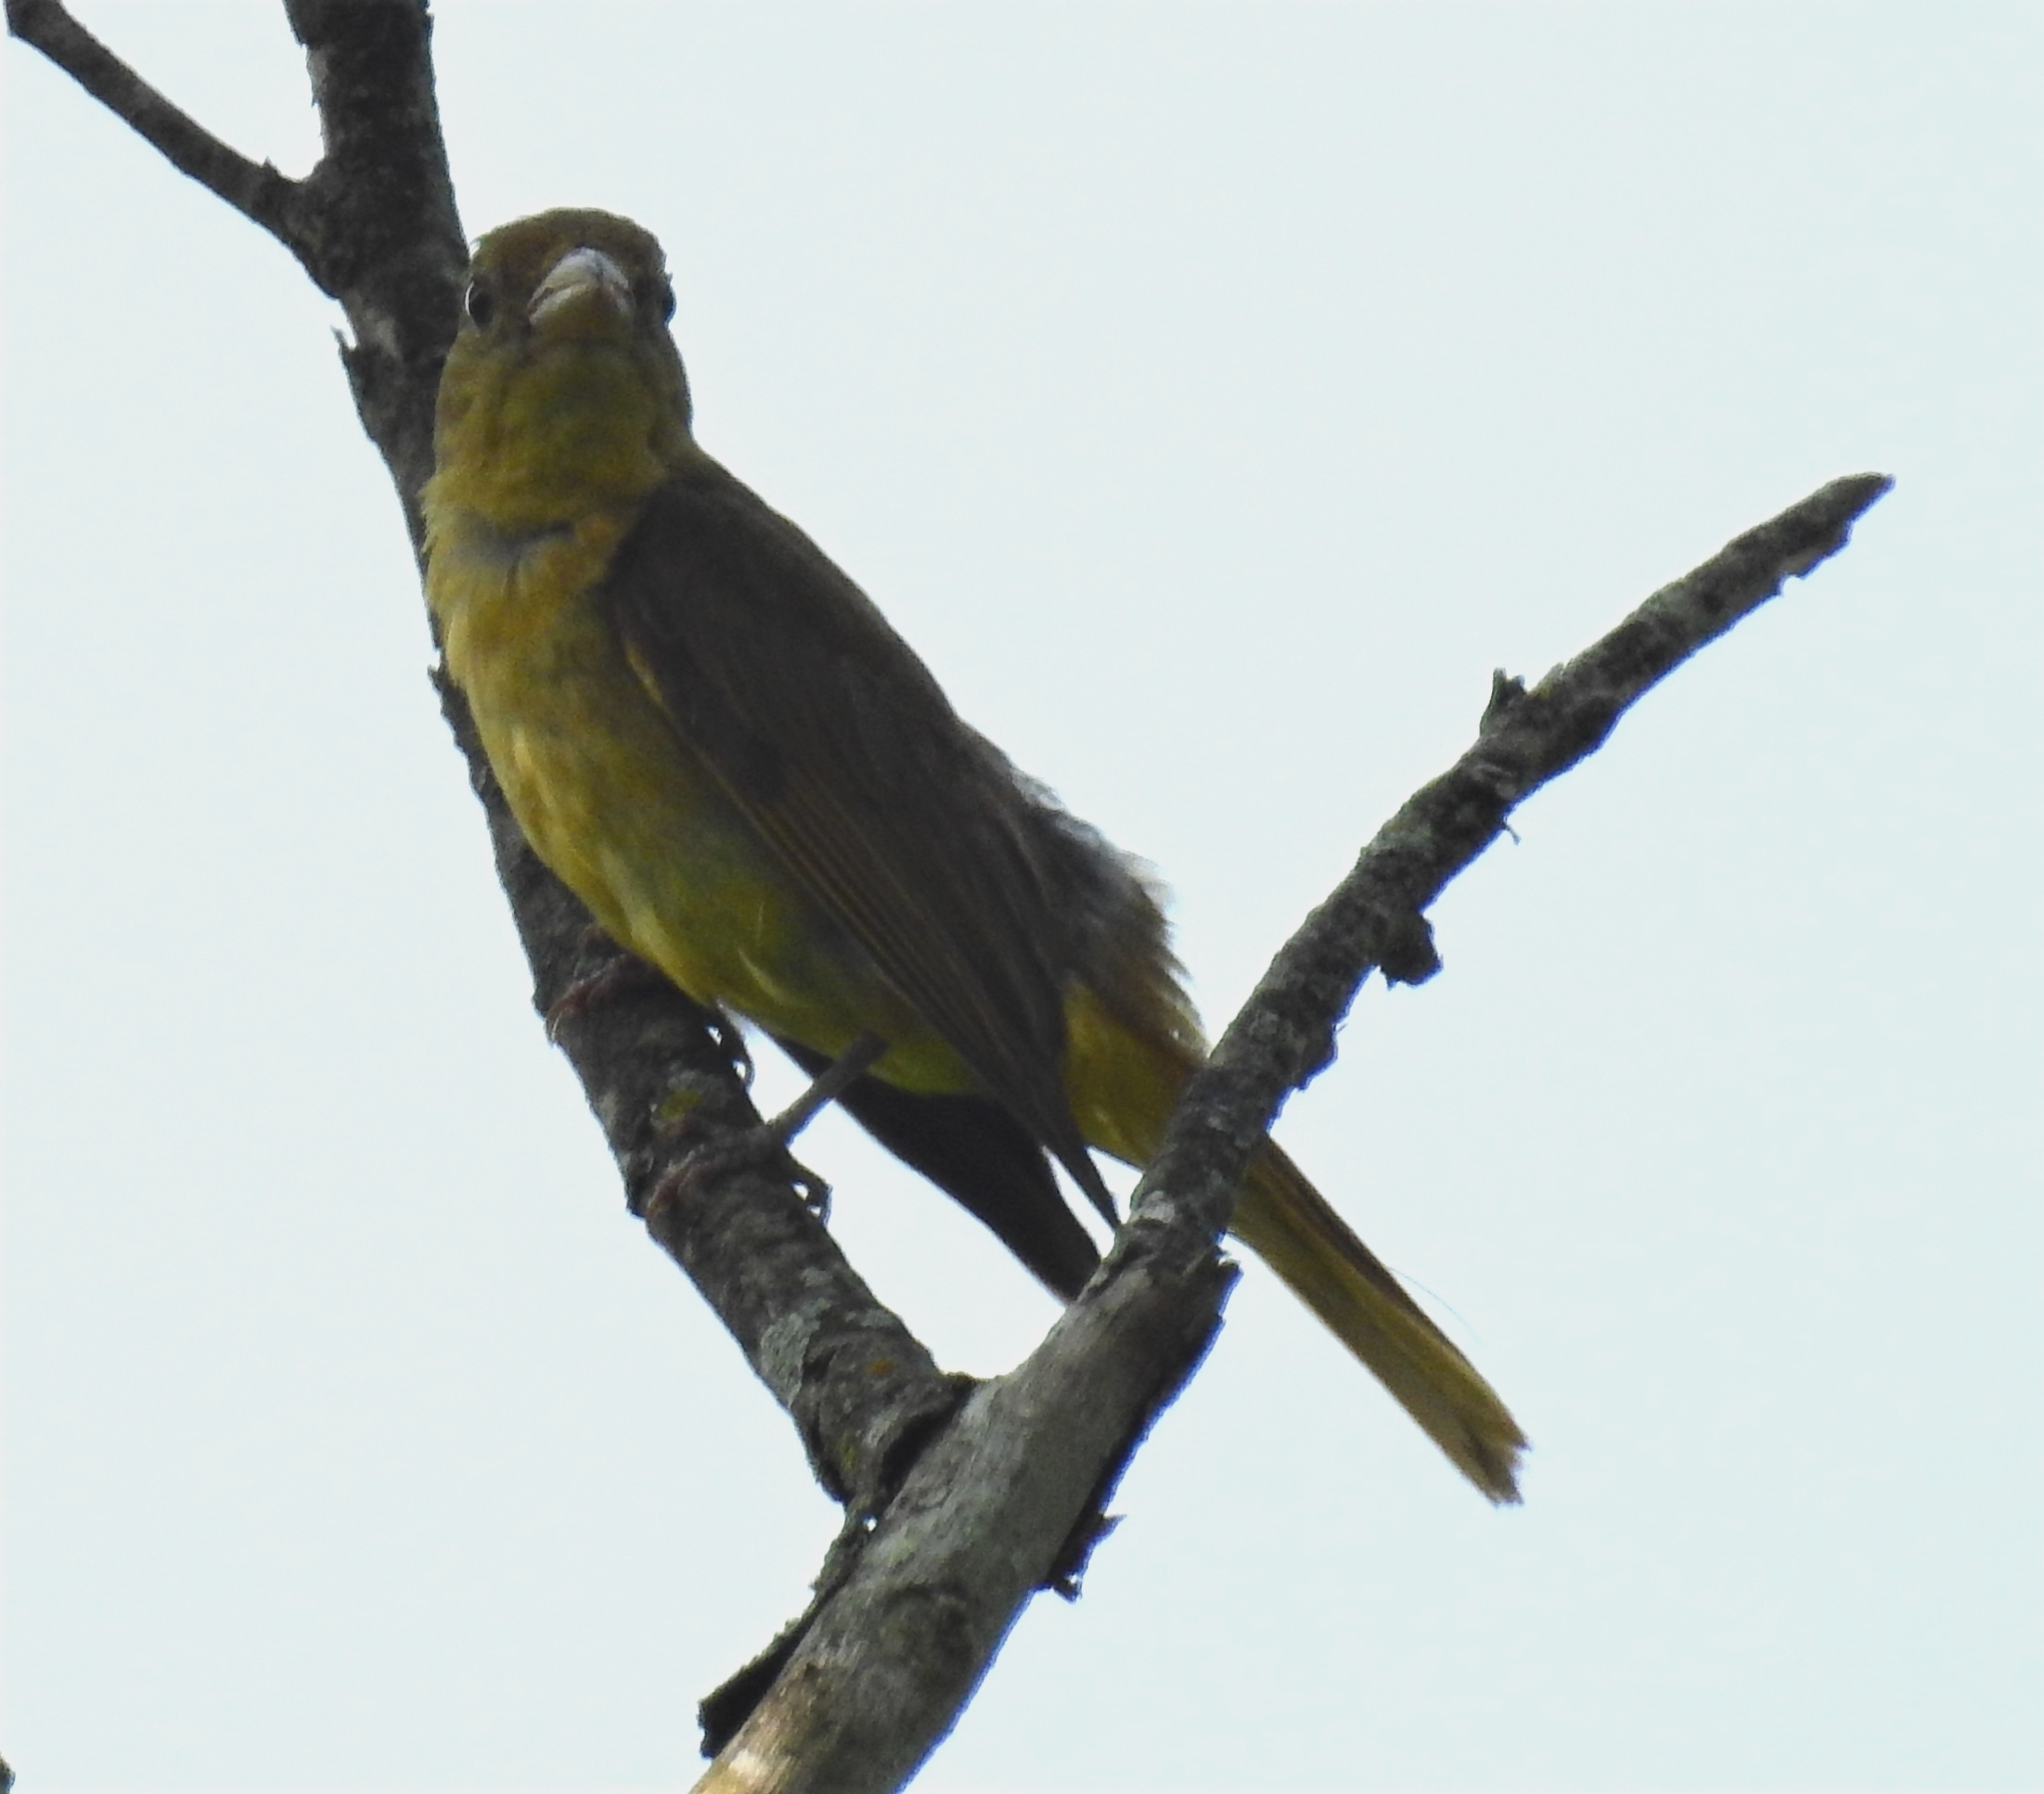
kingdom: Animalia
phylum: Chordata
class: Aves
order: Passeriformes
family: Cardinalidae
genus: Piranga
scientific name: Piranga rubra
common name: Summer tanager
